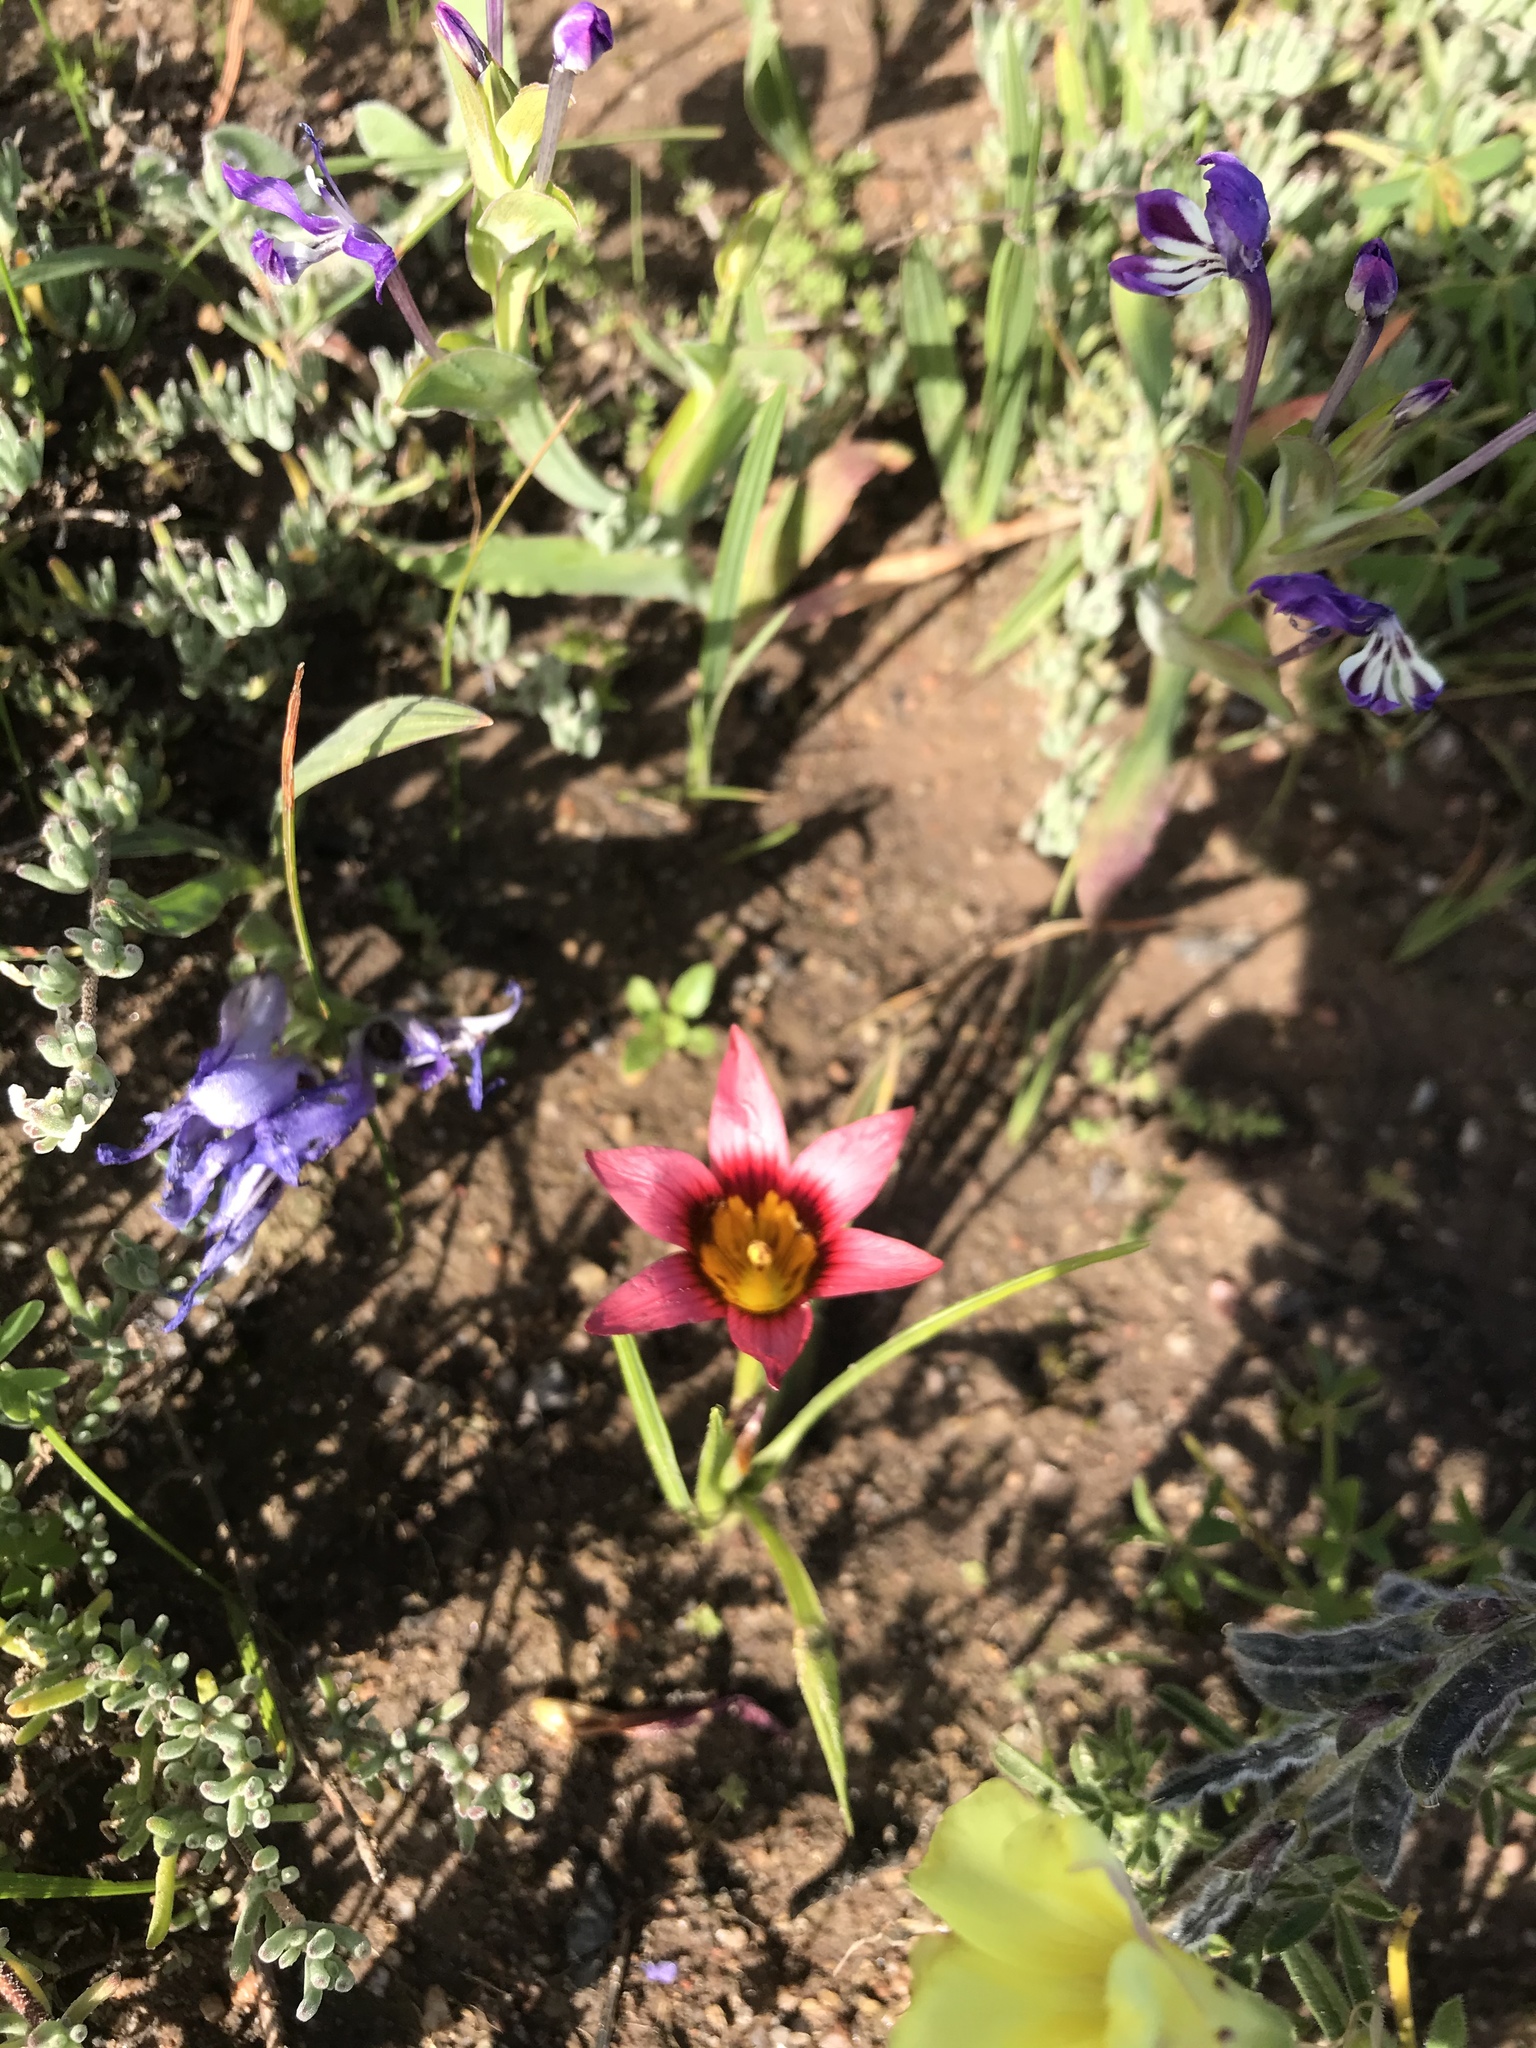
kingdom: Plantae
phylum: Tracheophyta
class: Liliopsida
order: Asparagales
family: Iridaceae
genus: Romulea
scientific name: Romulea hirsuta
